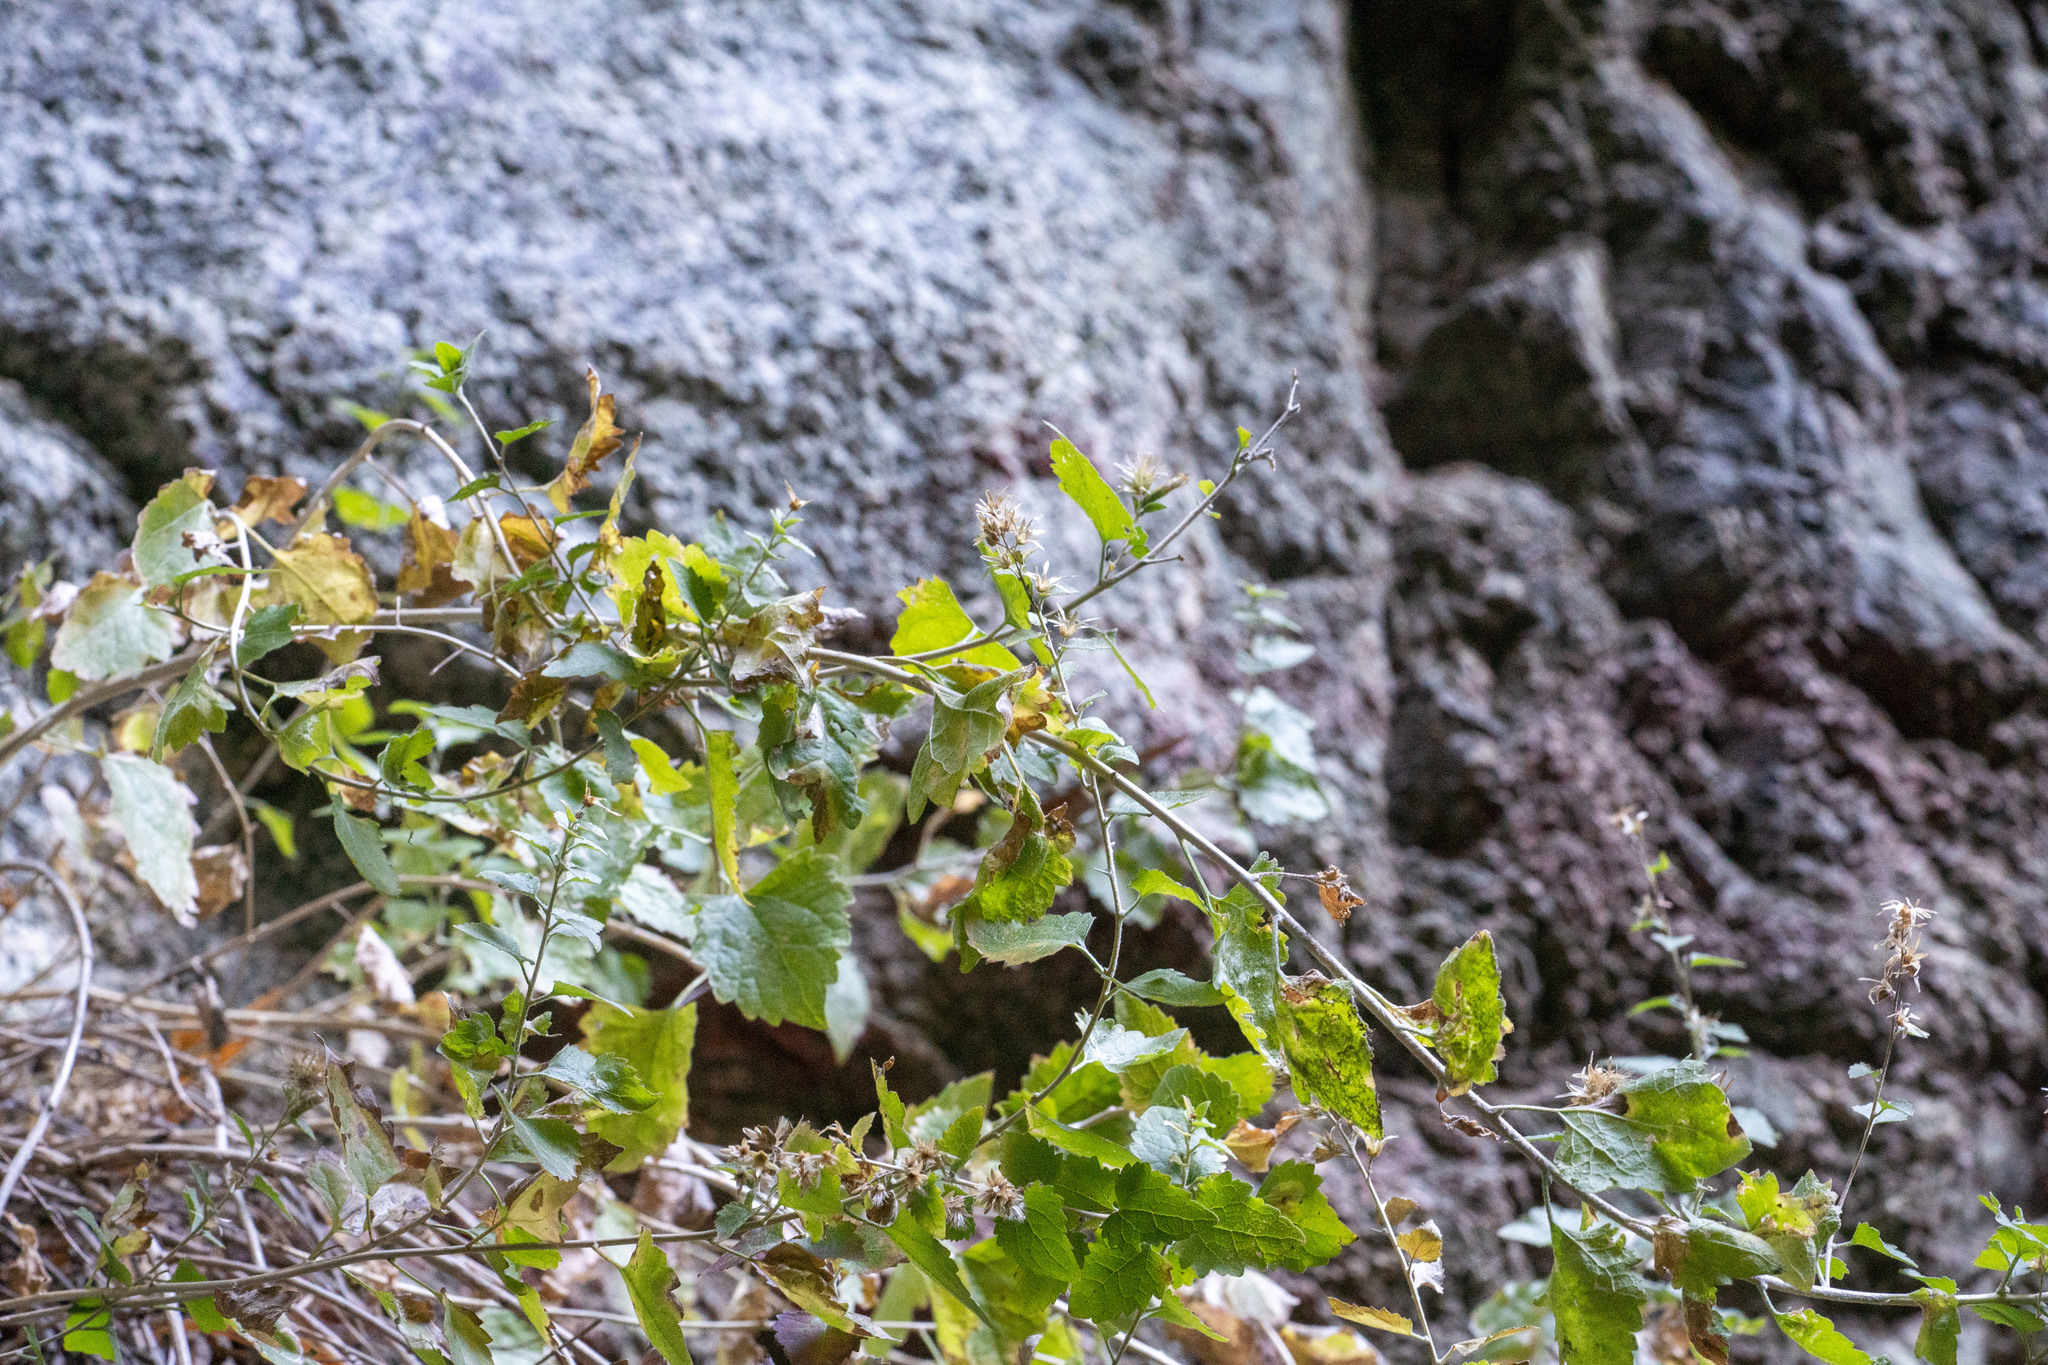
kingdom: Plantae
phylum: Tracheophyta
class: Magnoliopsida
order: Asterales
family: Asteraceae
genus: Brickellia
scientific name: Brickellia californica
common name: California brickellbush
